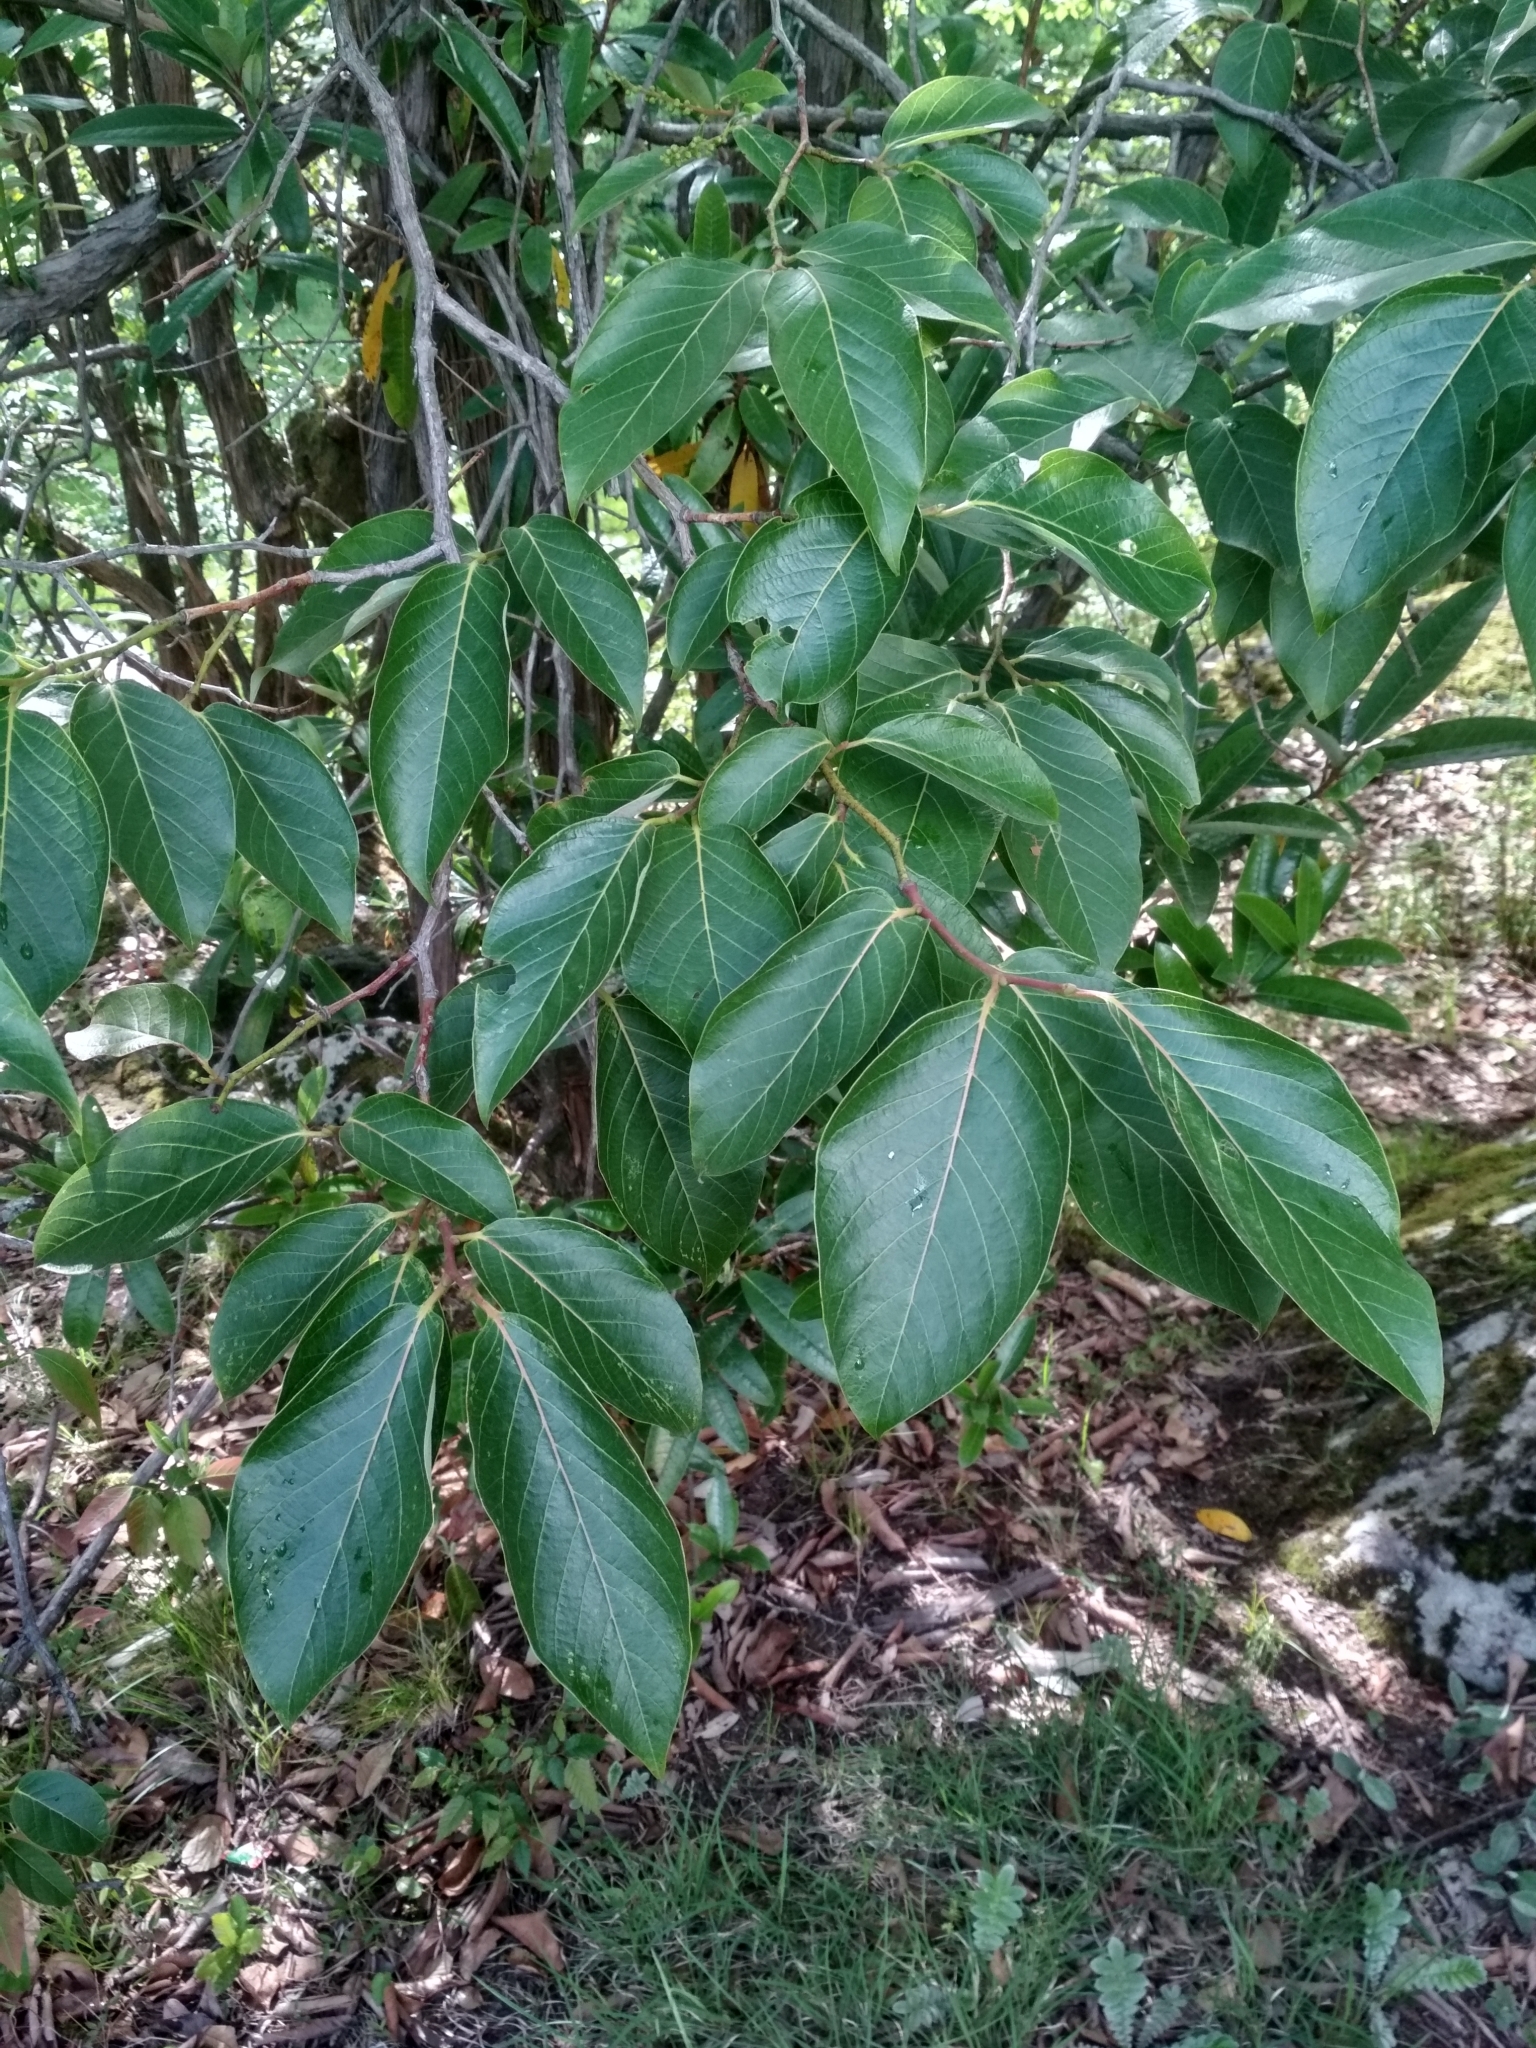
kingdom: Plantae
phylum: Tracheophyta
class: Magnoliopsida
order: Ericales
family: Ericaceae
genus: Lyonia
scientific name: Lyonia ovalifolia
